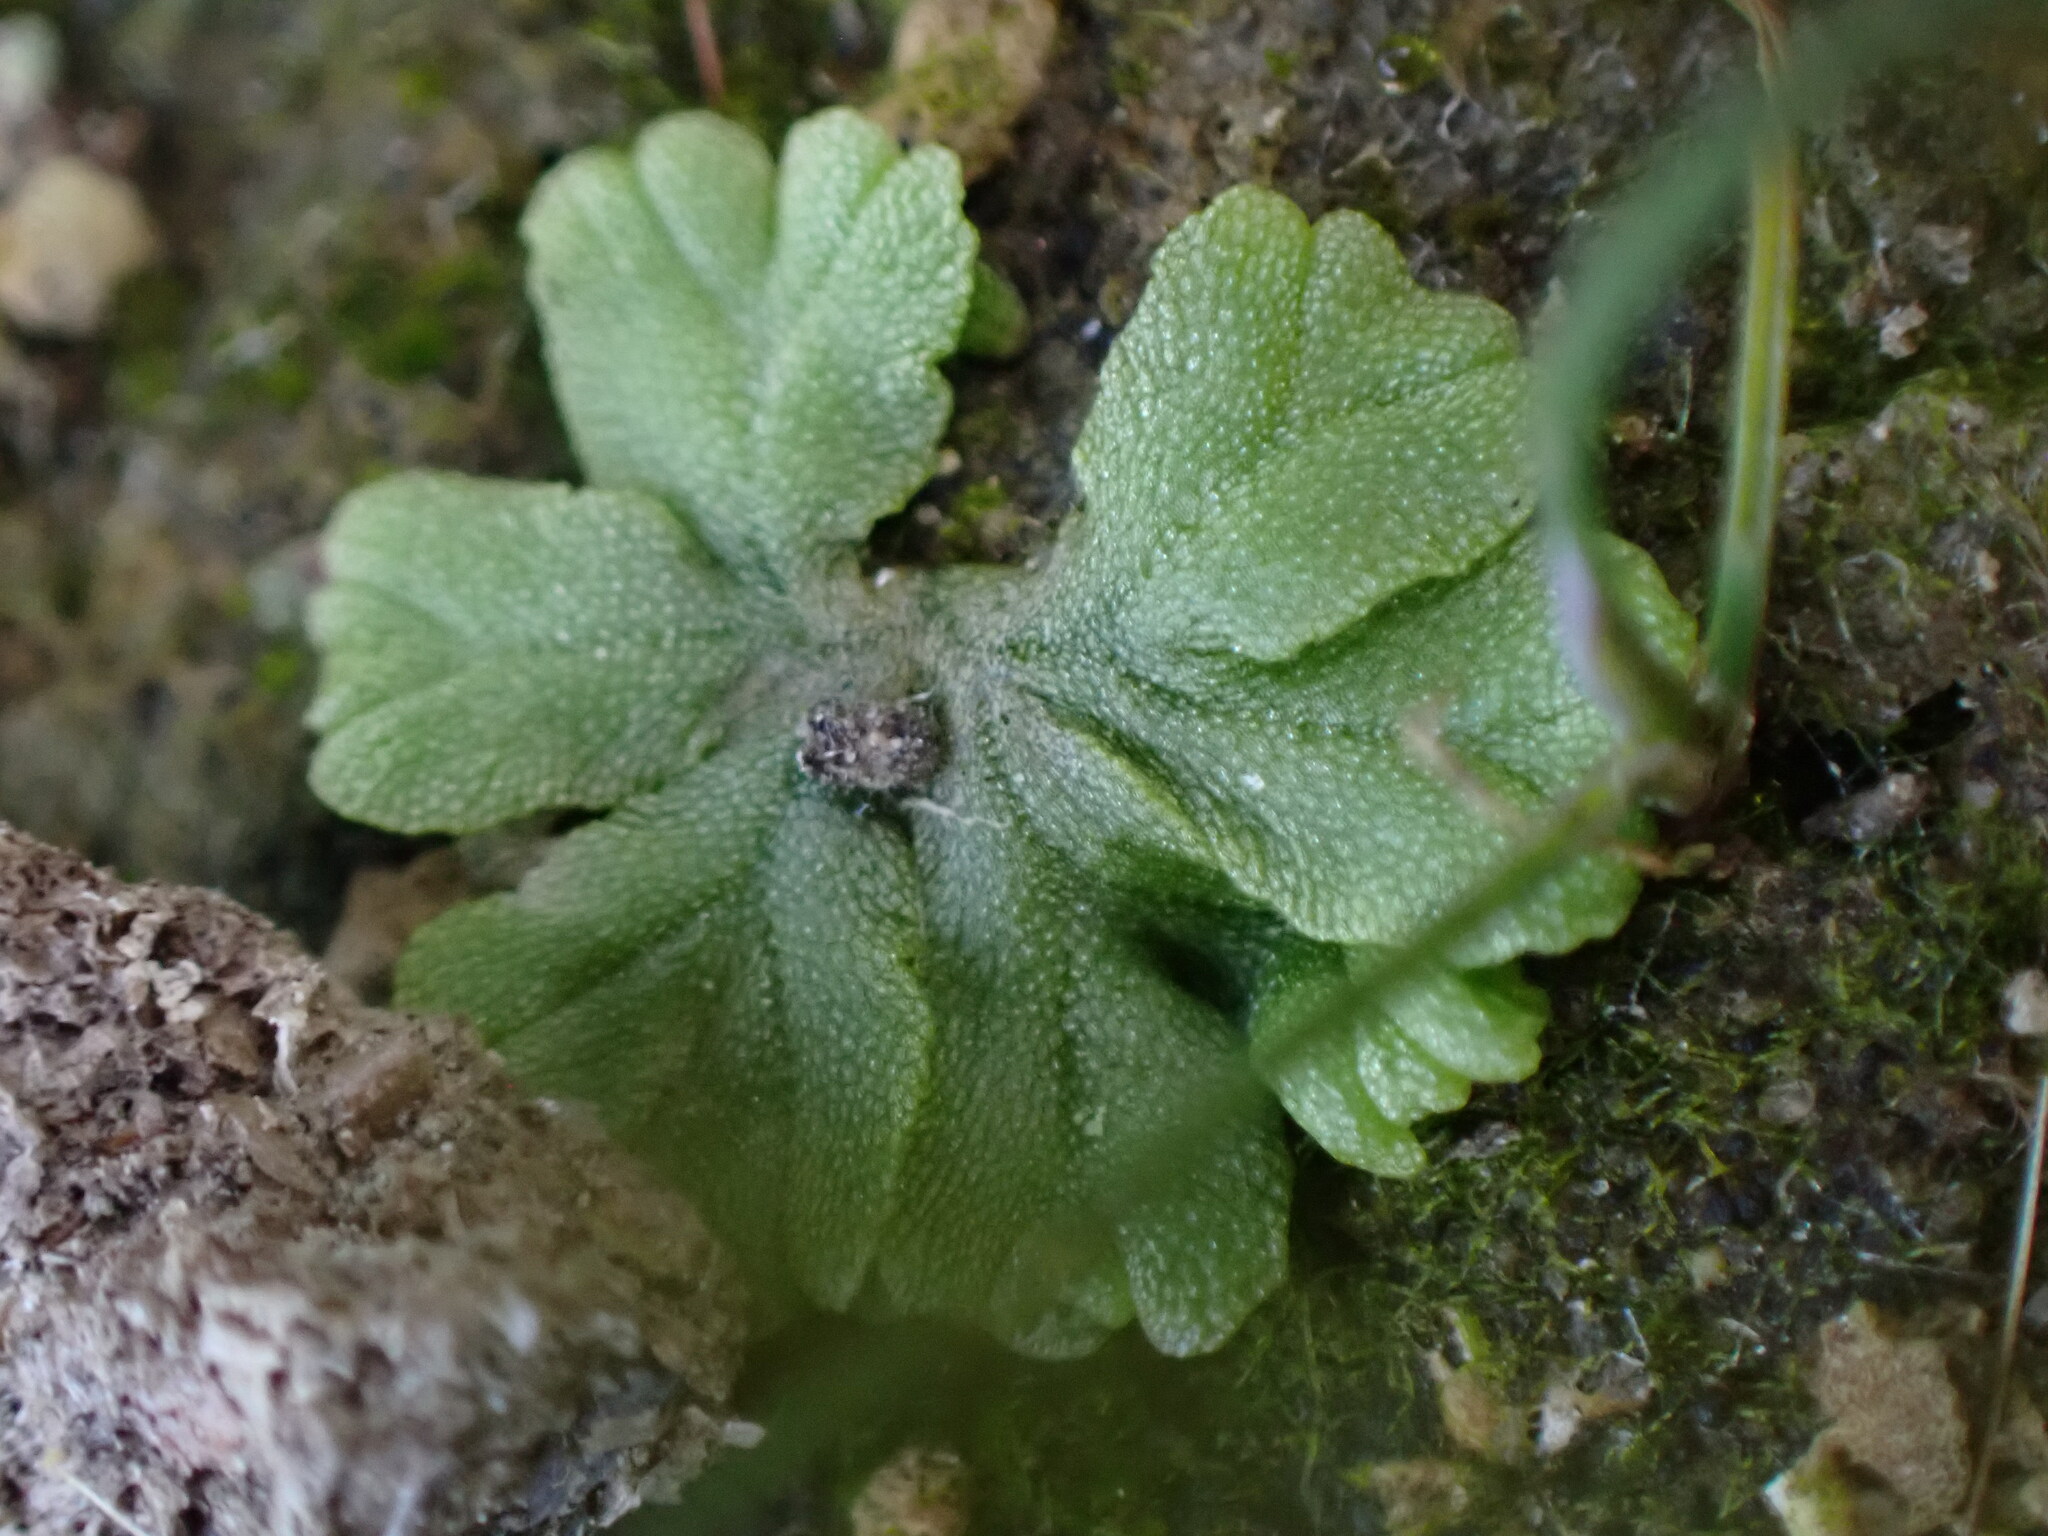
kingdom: Plantae
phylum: Marchantiophyta
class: Marchantiopsida
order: Marchantiales
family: Ricciaceae
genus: Ricciocarpos
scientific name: Ricciocarpos natans
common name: Purple-fringed liverwort
